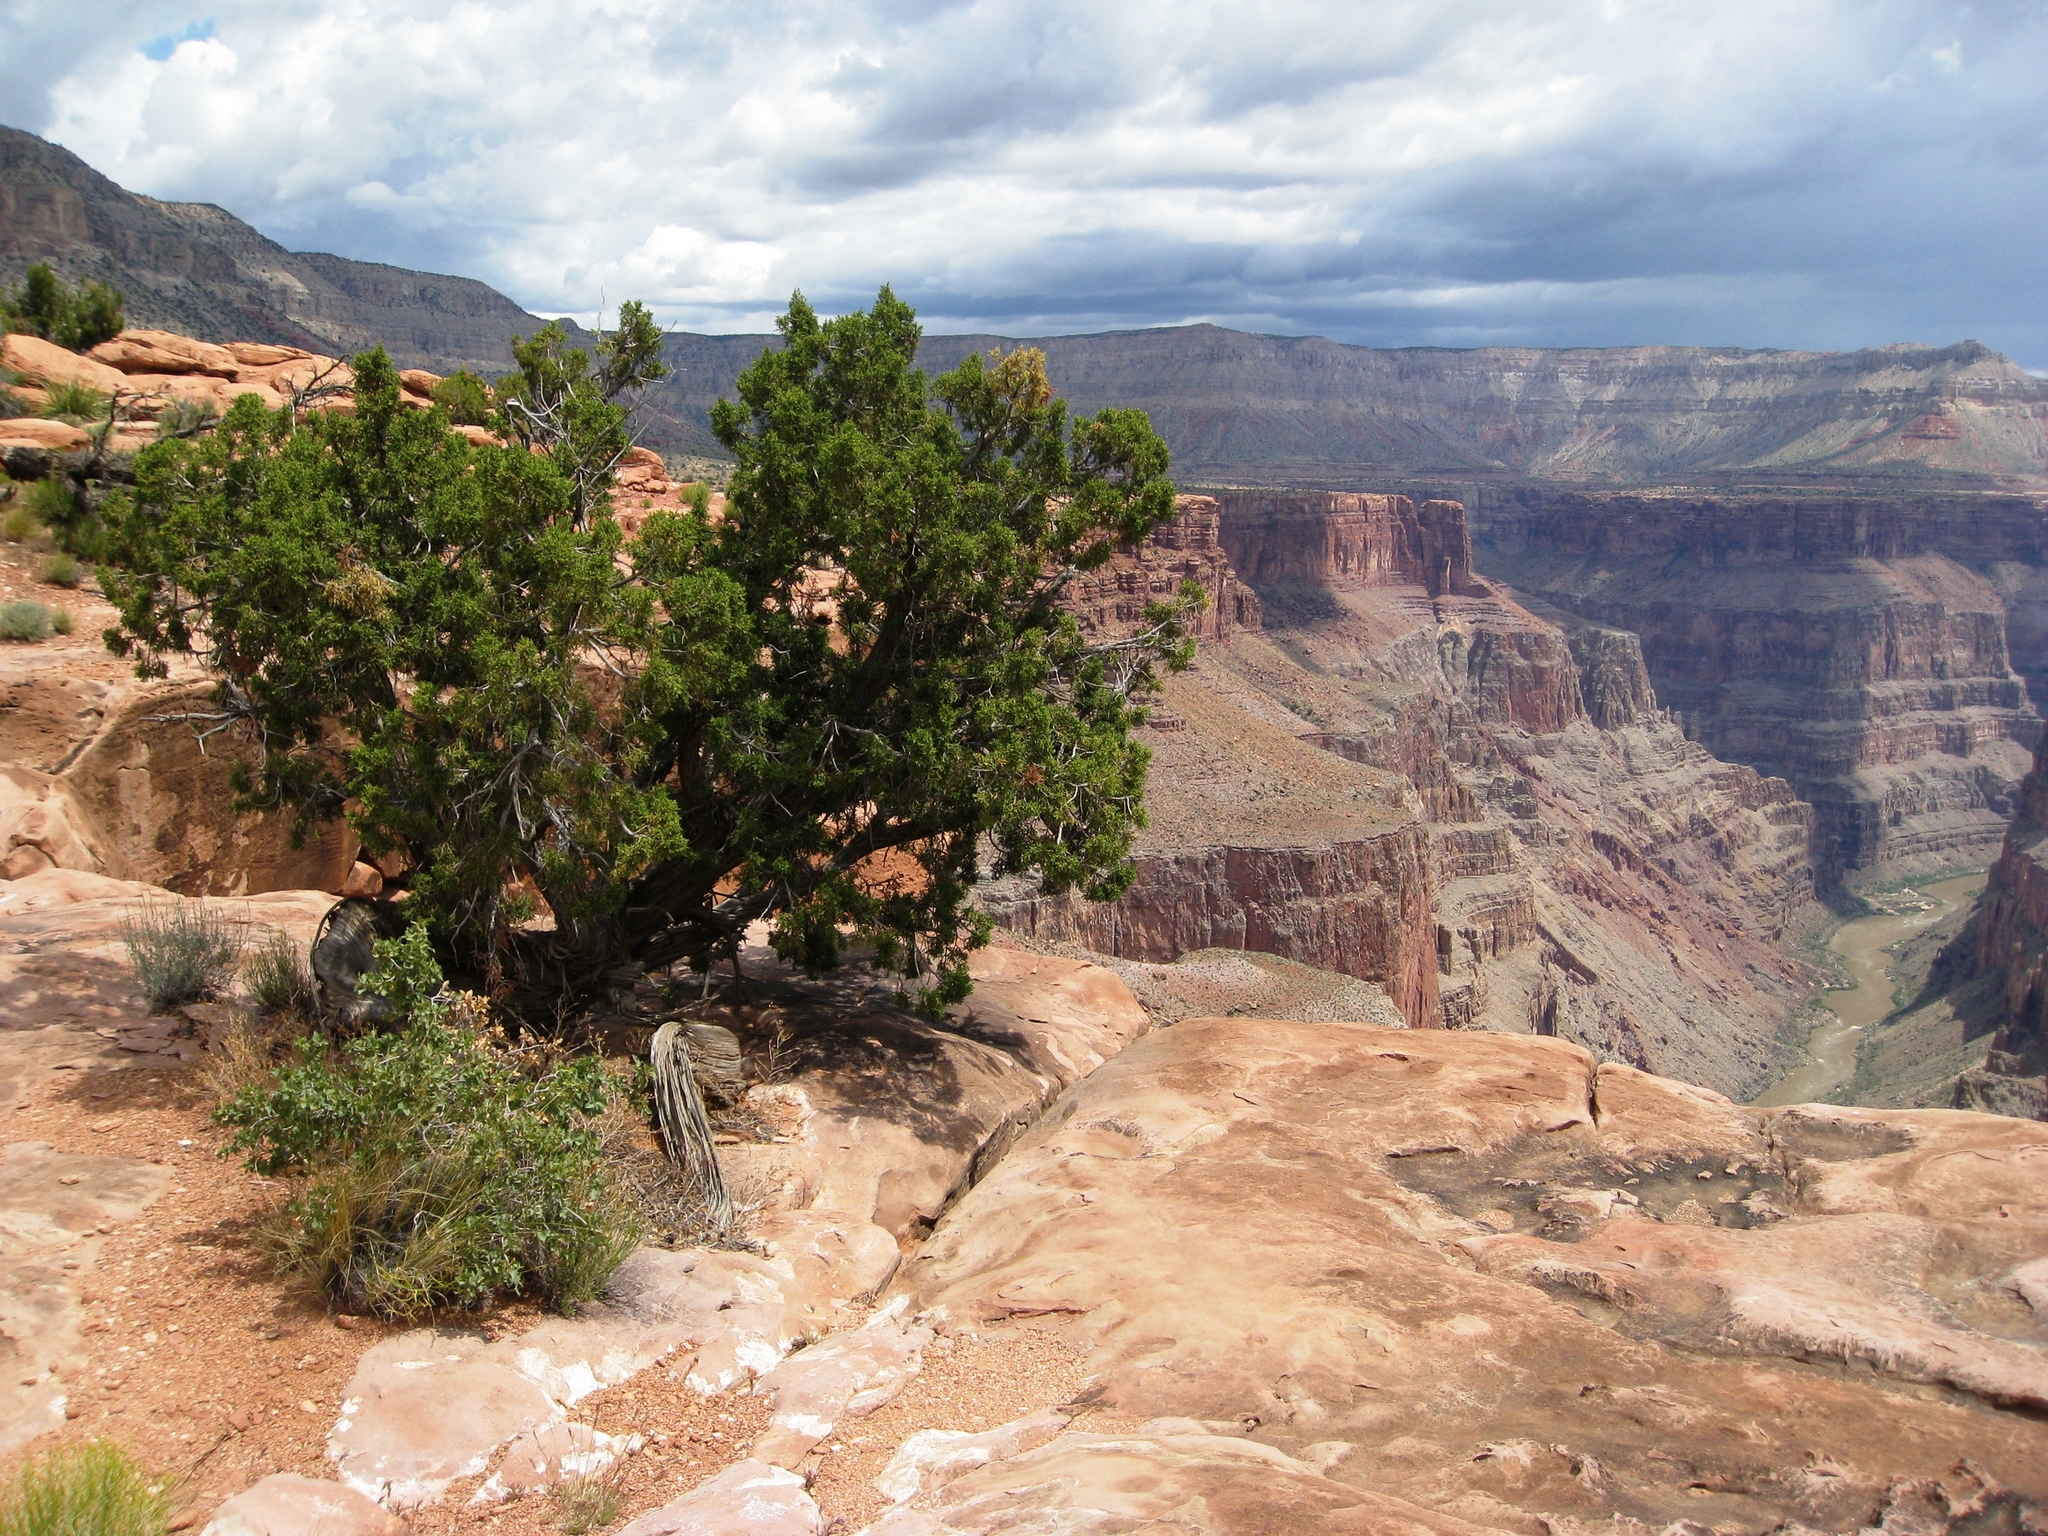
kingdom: Plantae
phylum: Tracheophyta
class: Pinopsida
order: Pinales
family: Cupressaceae
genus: Juniperus
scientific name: Juniperus osteosperma
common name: Utah juniper
